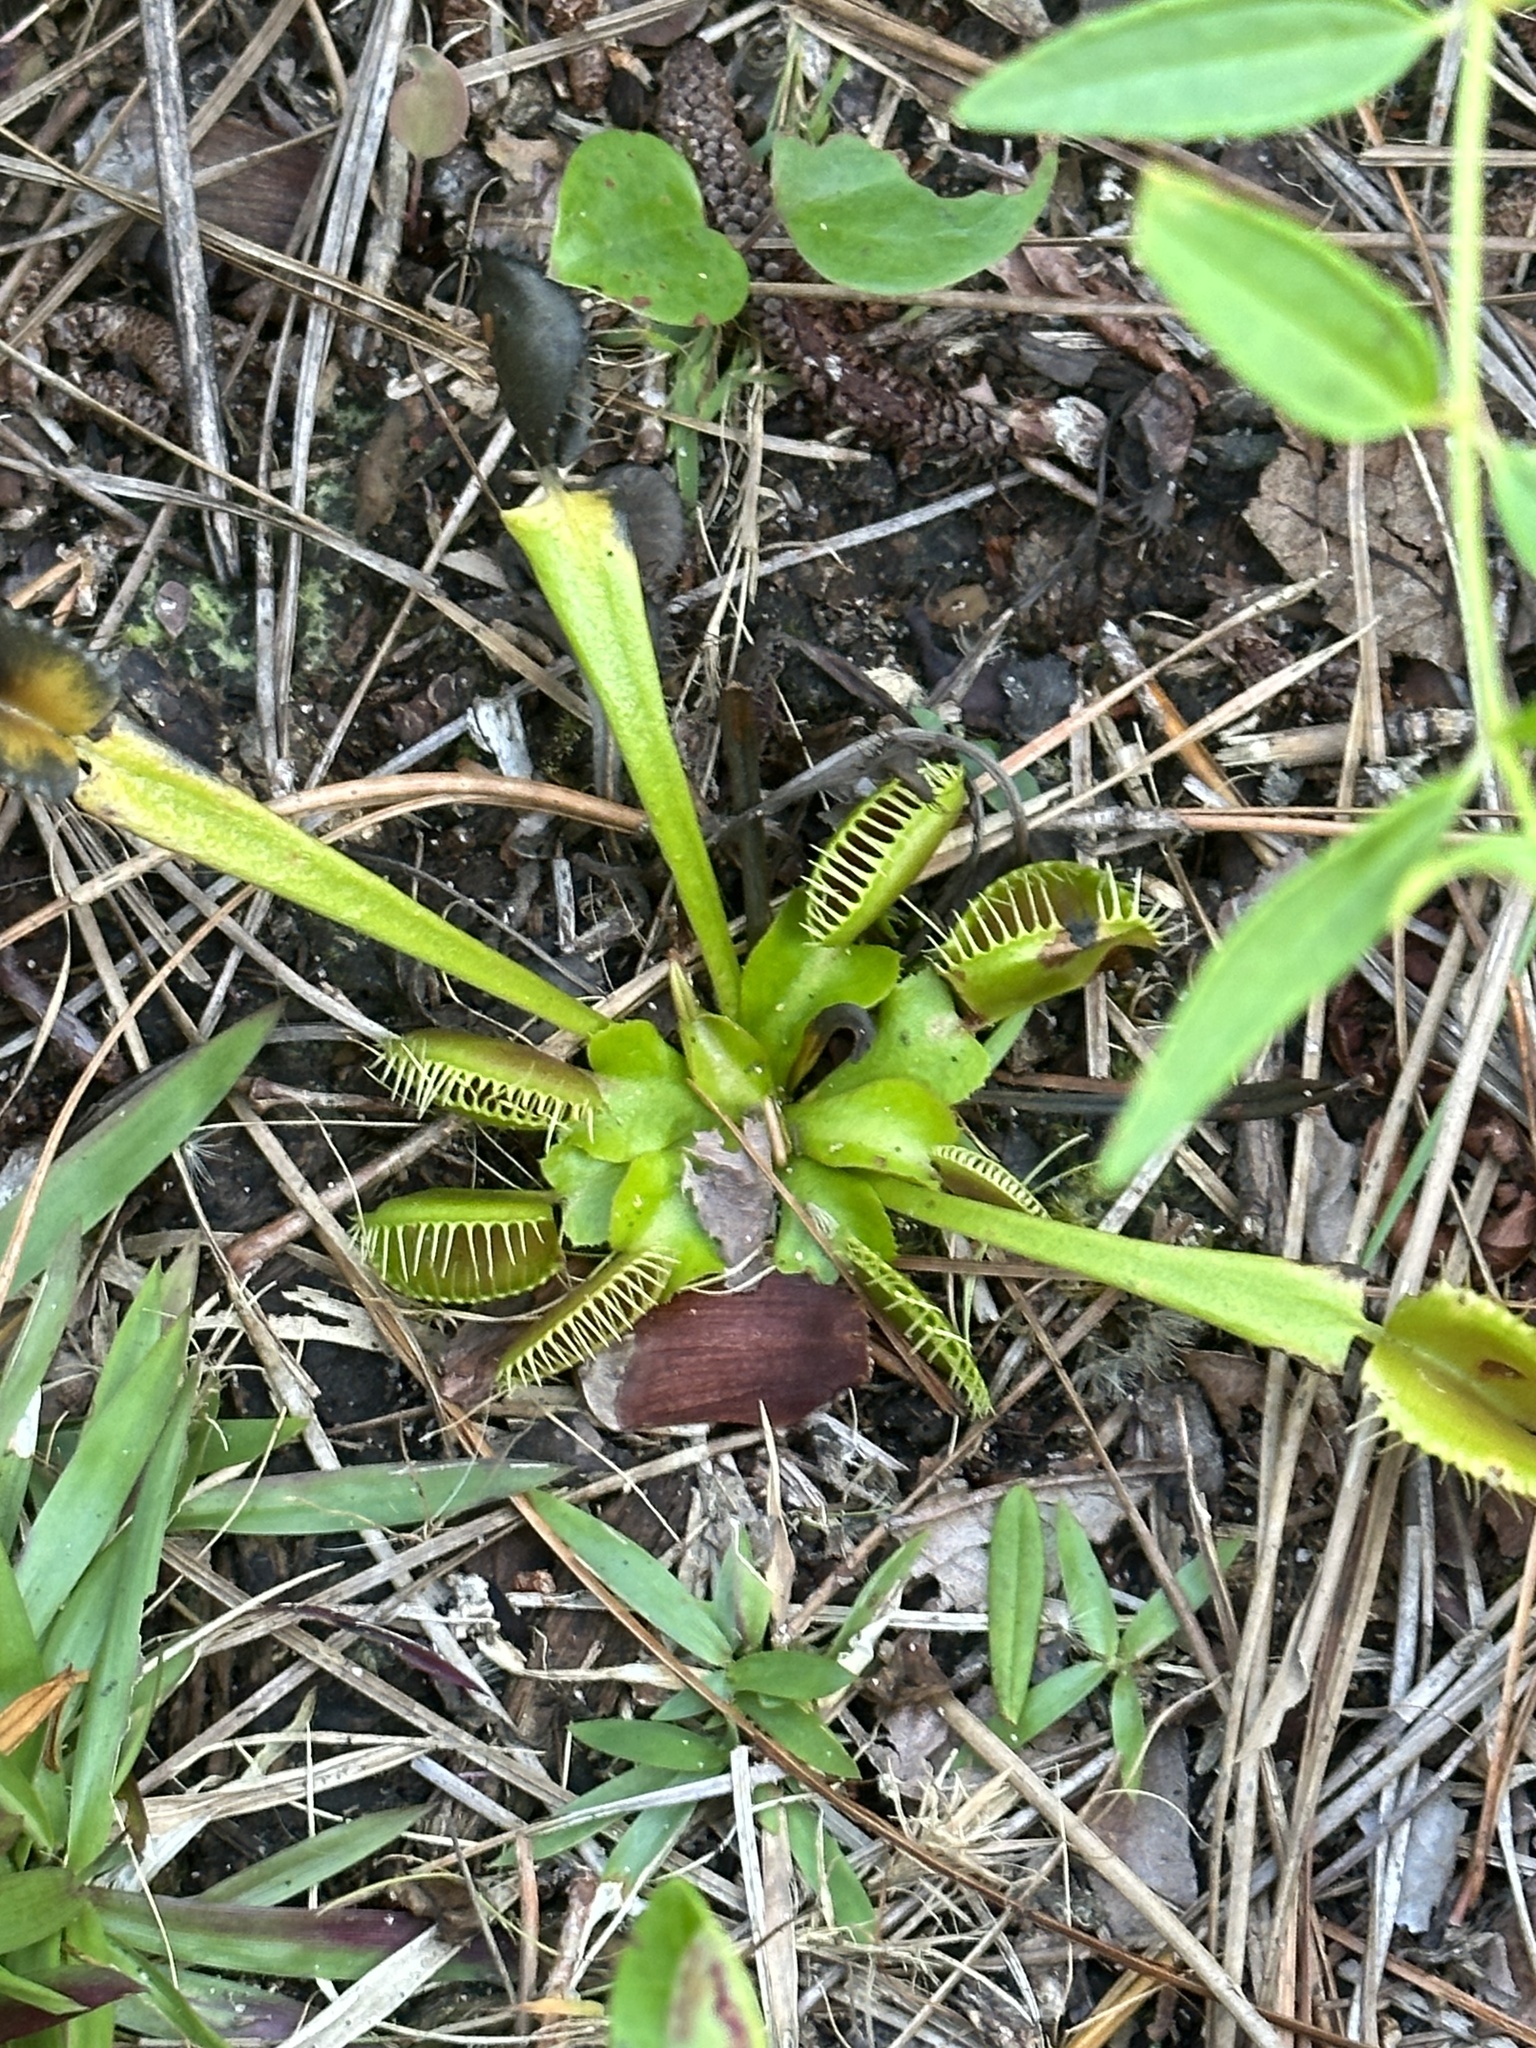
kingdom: Plantae
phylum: Tracheophyta
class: Magnoliopsida
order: Caryophyllales
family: Droseraceae
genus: Dionaea
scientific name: Dionaea muscipula
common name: Venus flytrap
